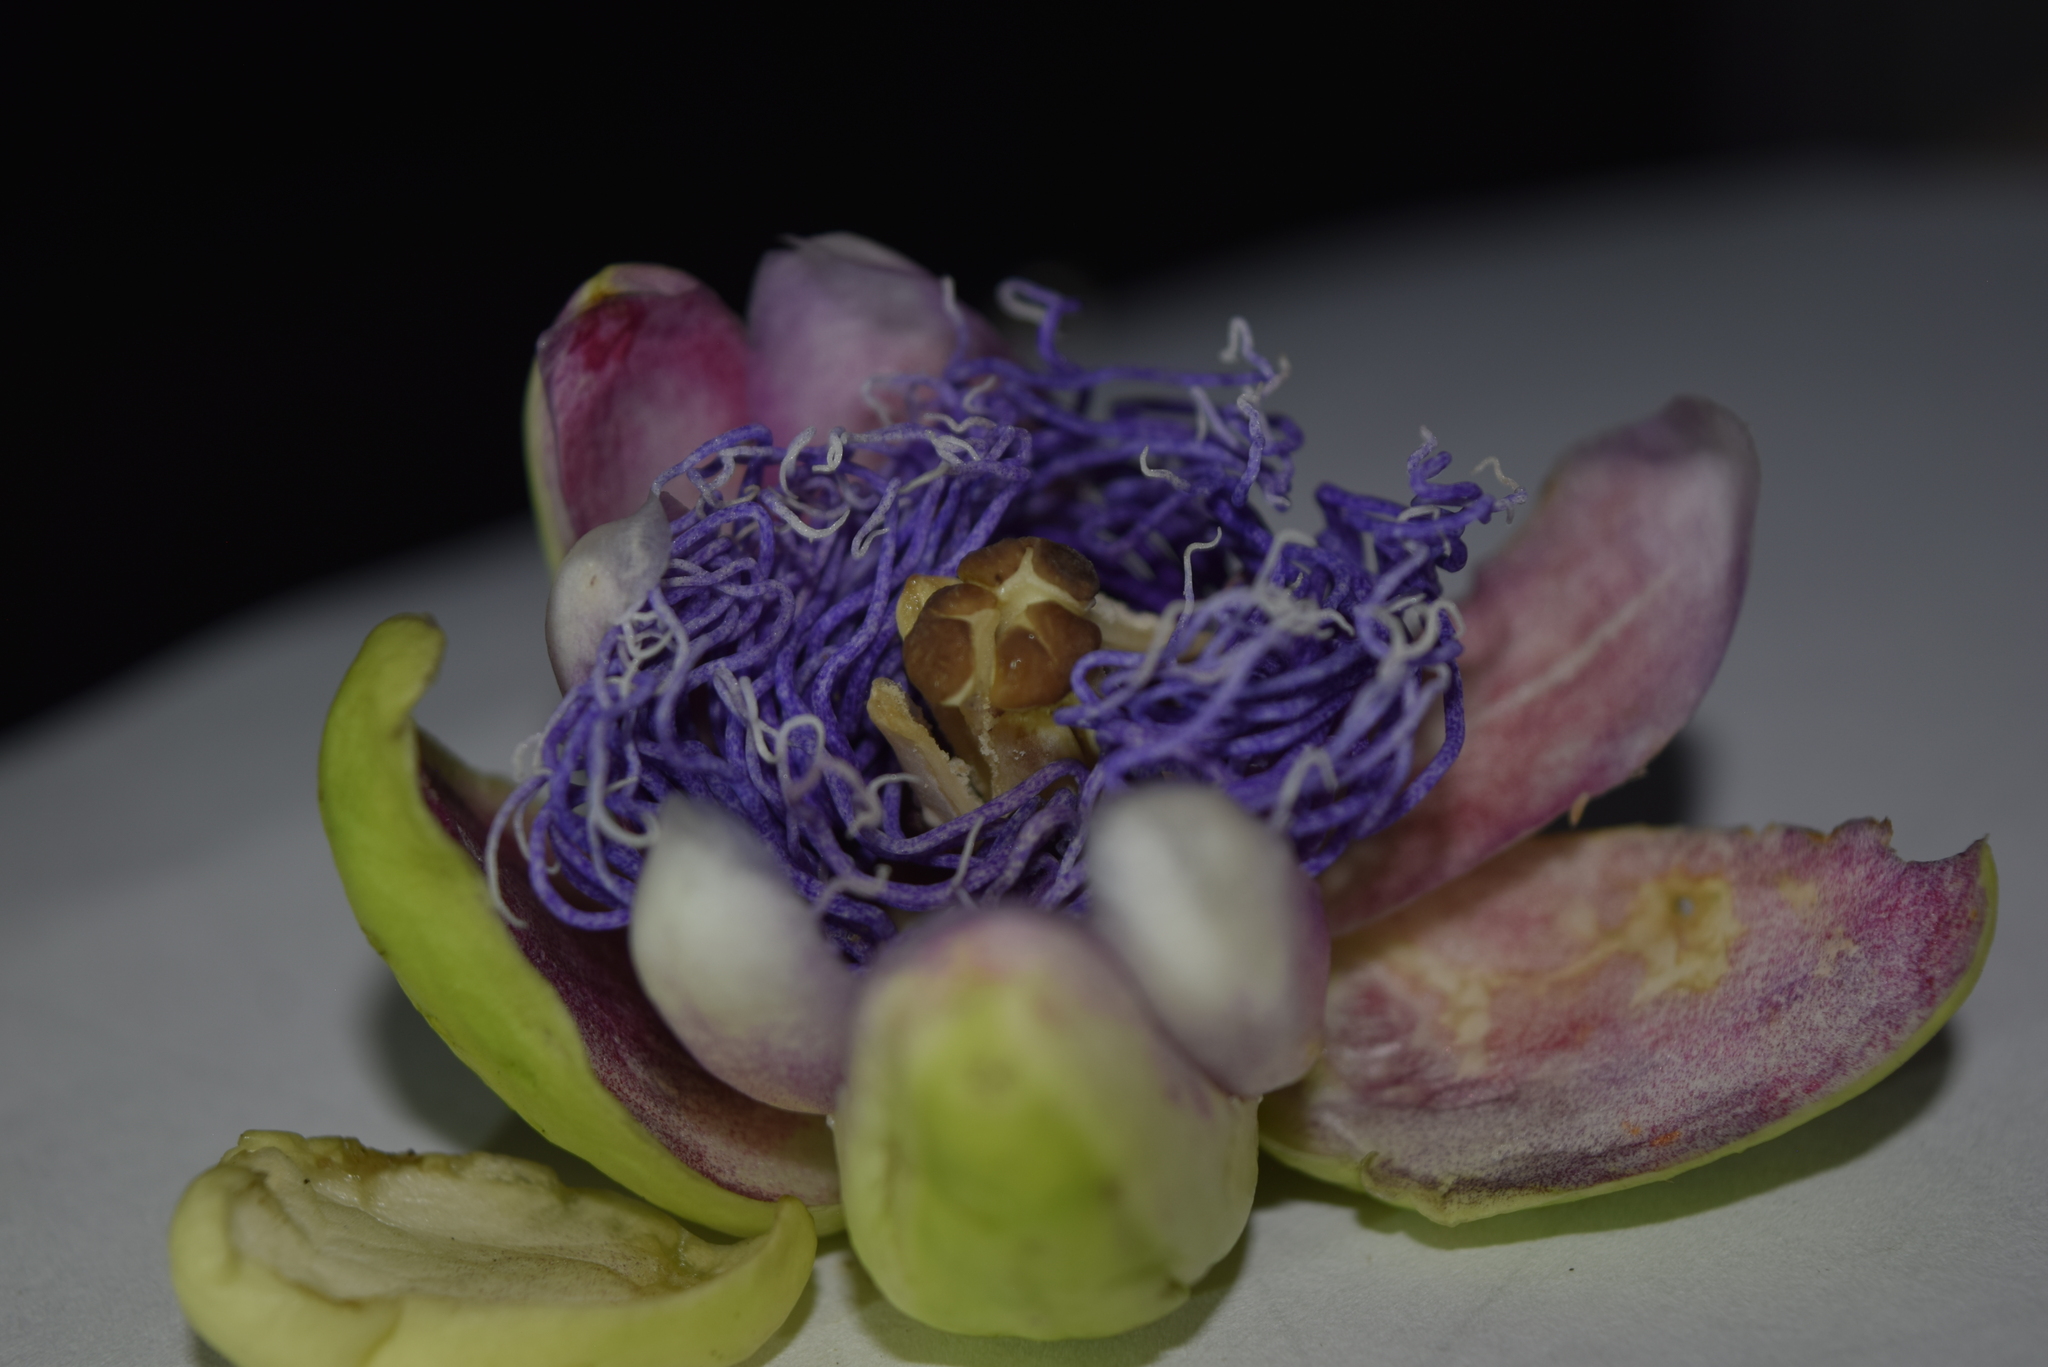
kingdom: Plantae
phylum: Tracheophyta
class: Magnoliopsida
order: Malpighiales
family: Passifloraceae
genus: Passiflora
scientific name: Passiflora quadrangularis
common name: Giant granadilla
